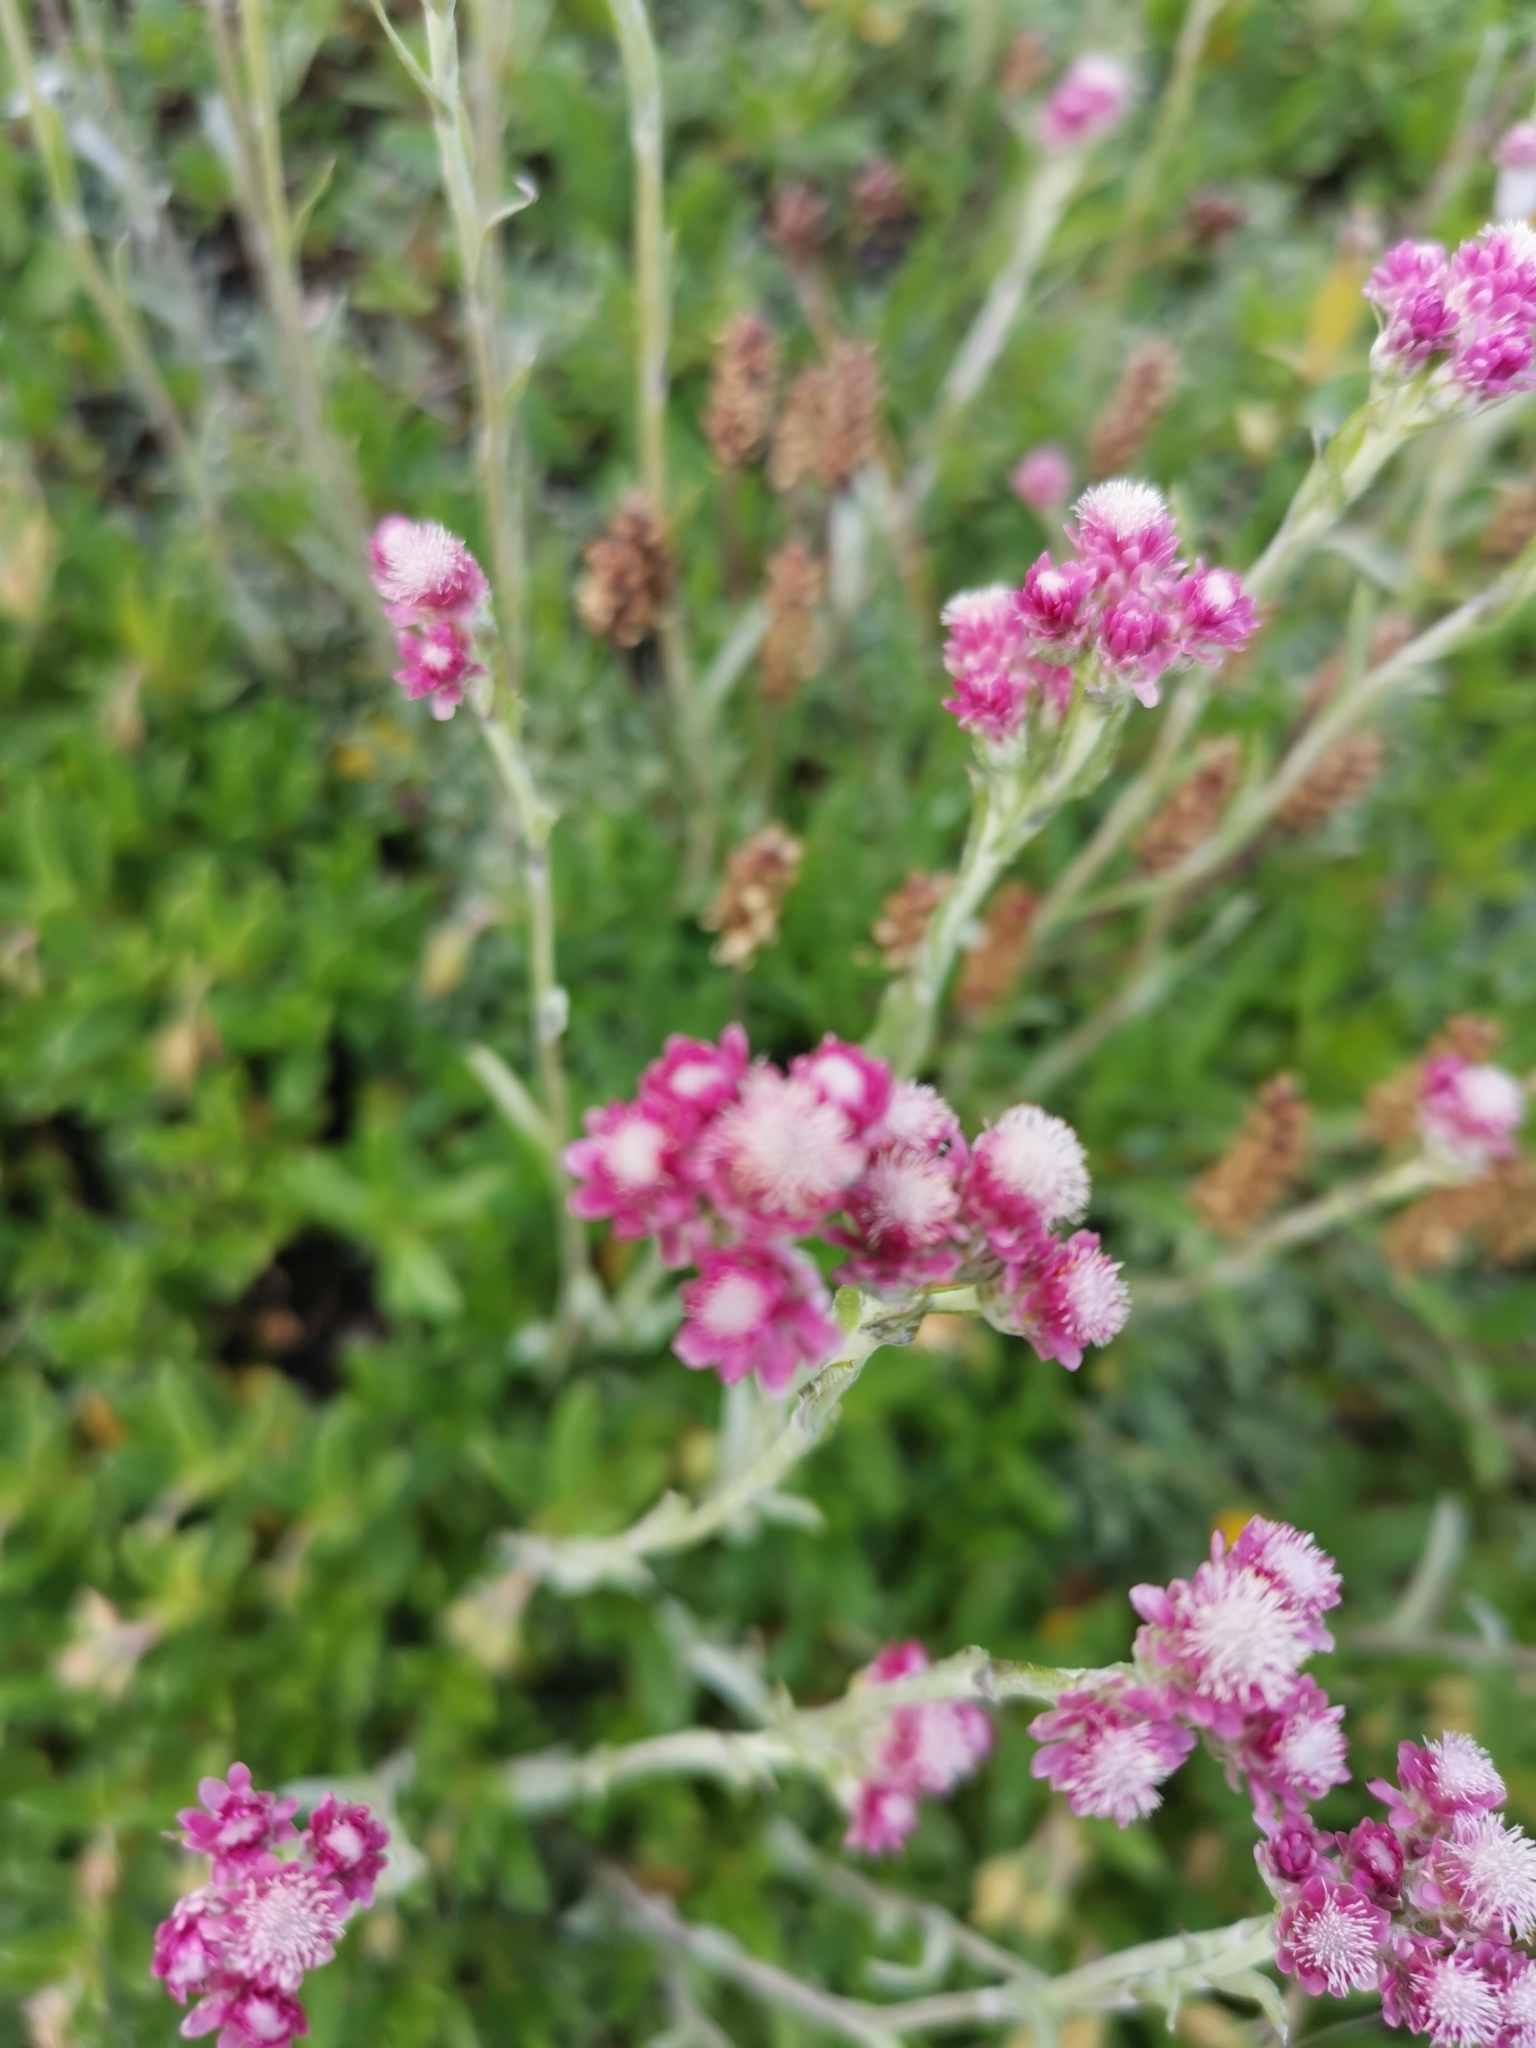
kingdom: Plantae
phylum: Tracheophyta
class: Magnoliopsida
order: Asterales
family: Asteraceae
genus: Antennaria
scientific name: Antennaria dioica
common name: Mountain everlasting
